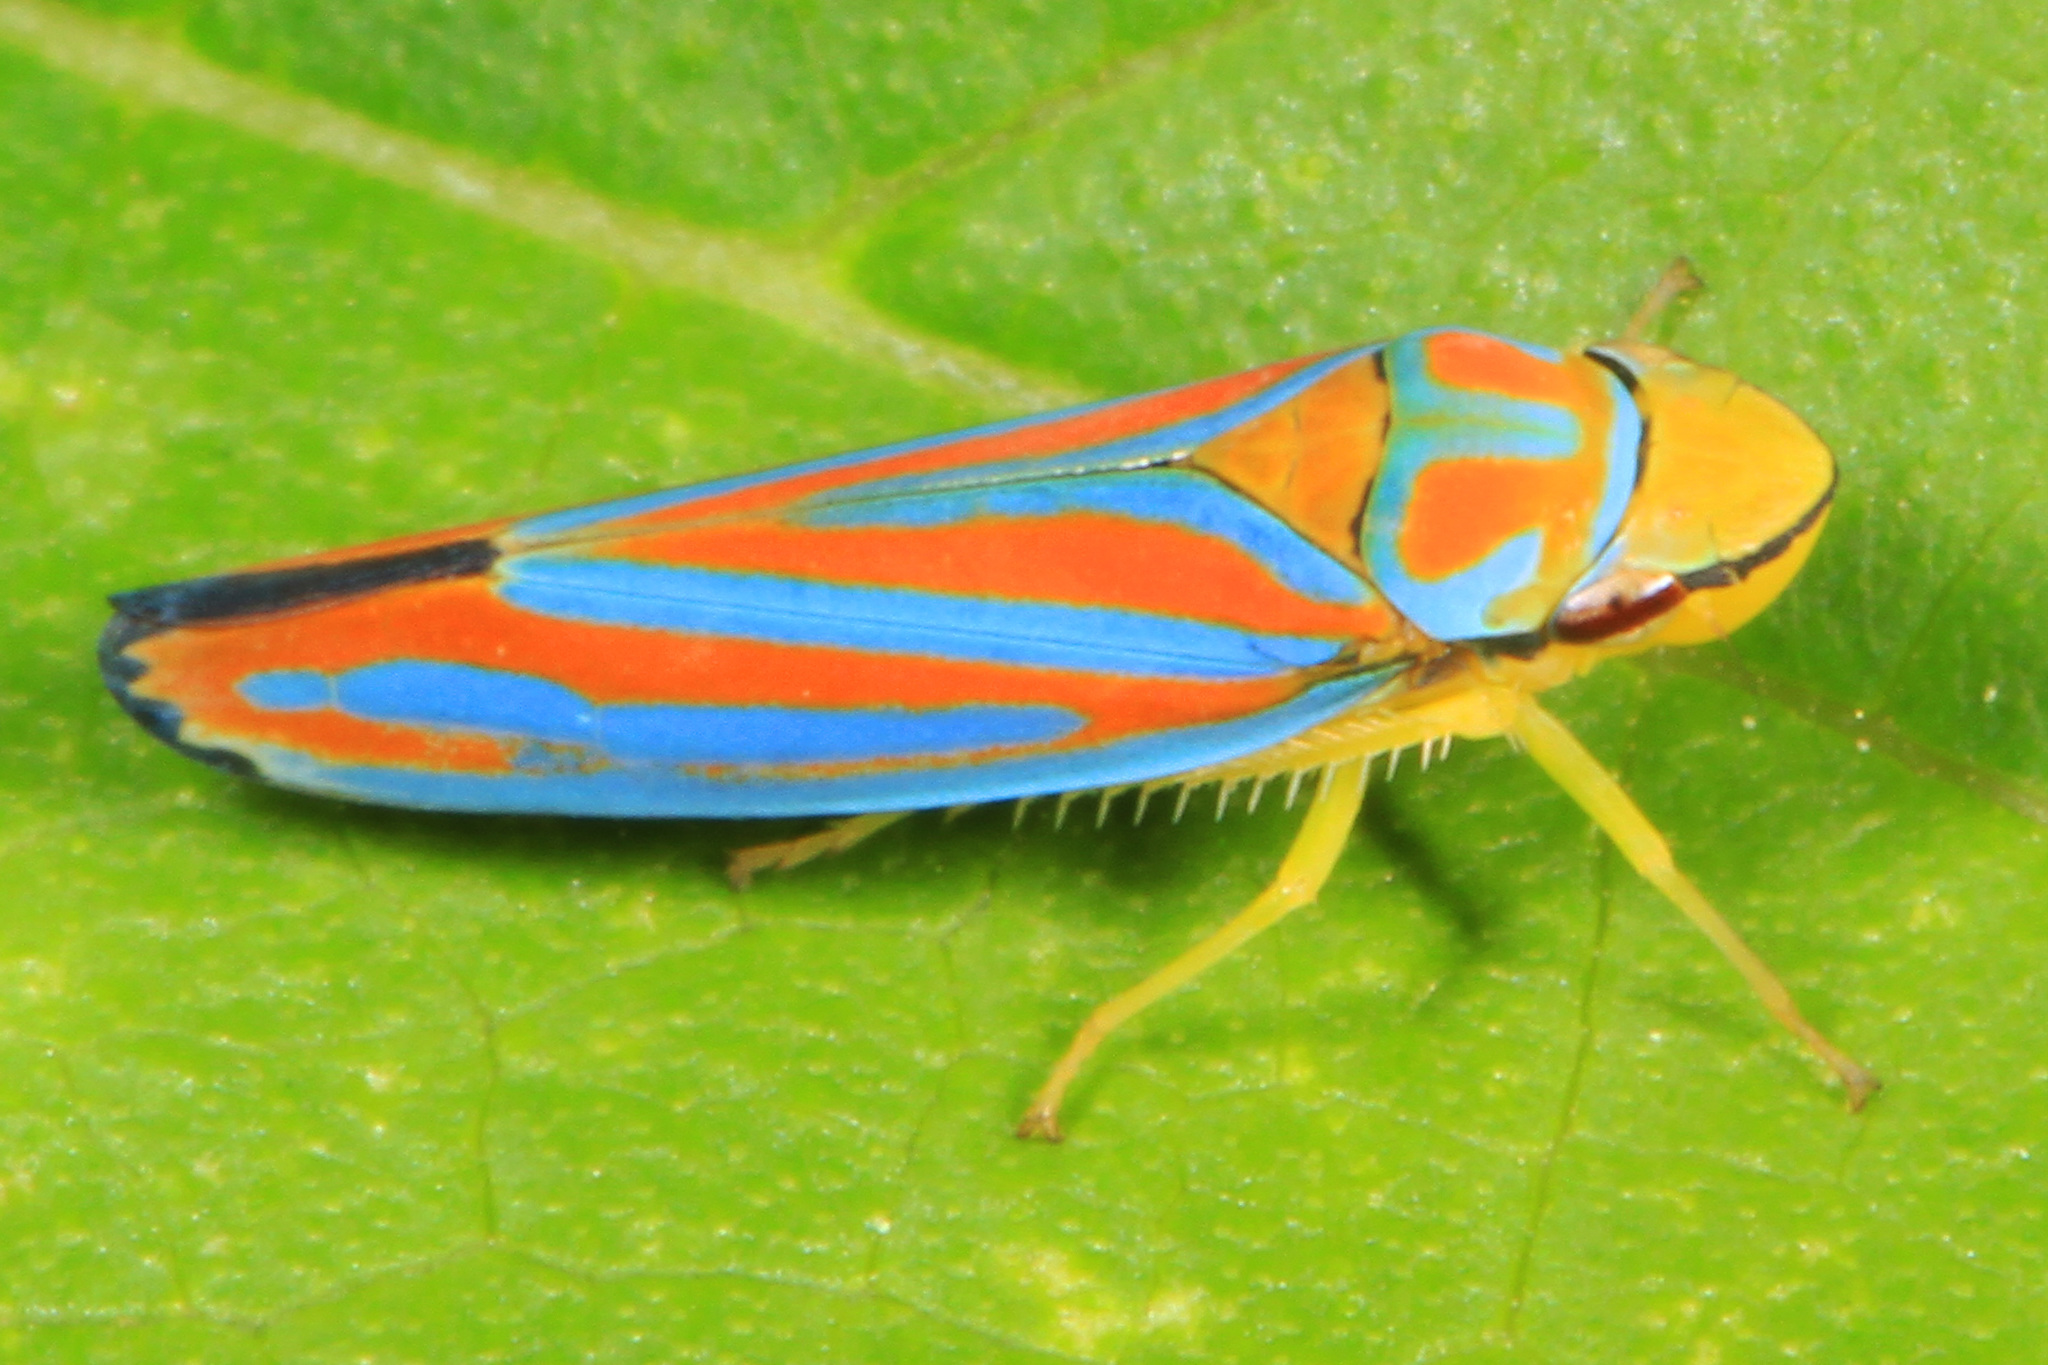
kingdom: Animalia
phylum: Arthropoda
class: Insecta
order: Hemiptera
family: Cicadellidae
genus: Graphocephala
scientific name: Graphocephala coccinea
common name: Candy-striped leafhopper
